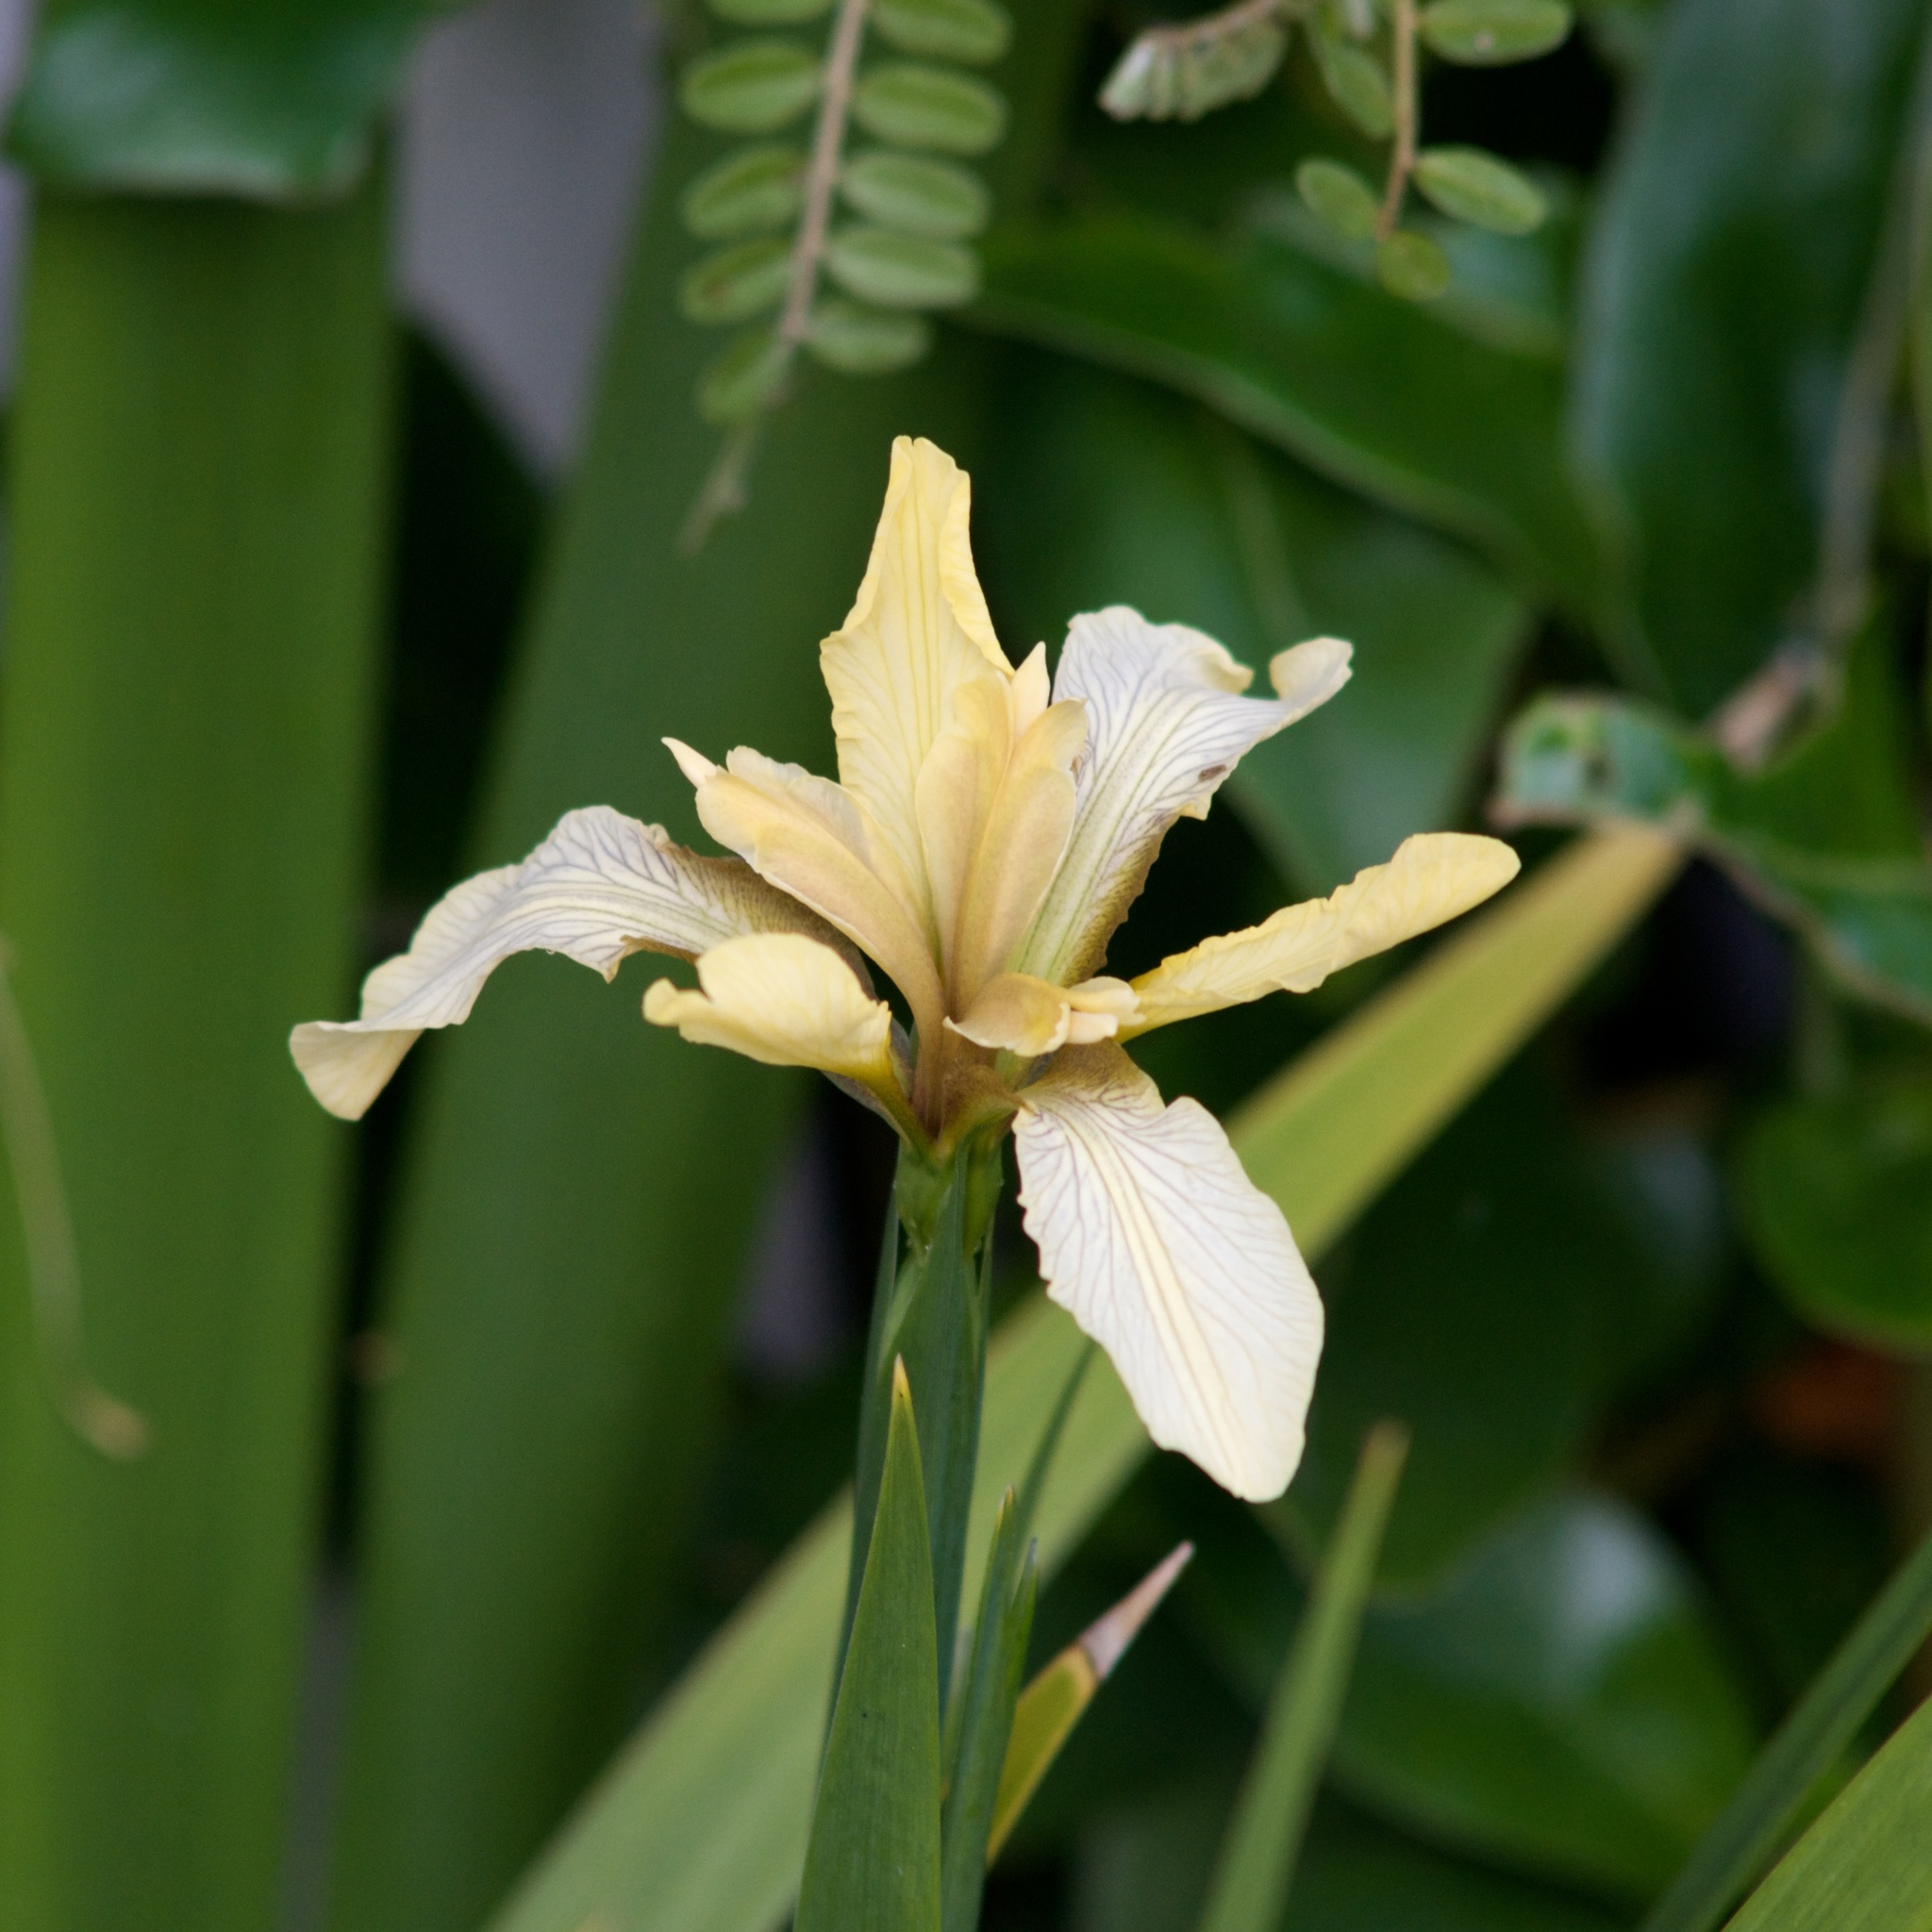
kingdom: Plantae
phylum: Tracheophyta
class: Liliopsida
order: Asparagales
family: Iridaceae
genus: Iris
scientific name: Iris foetidissima
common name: Stinking iris
